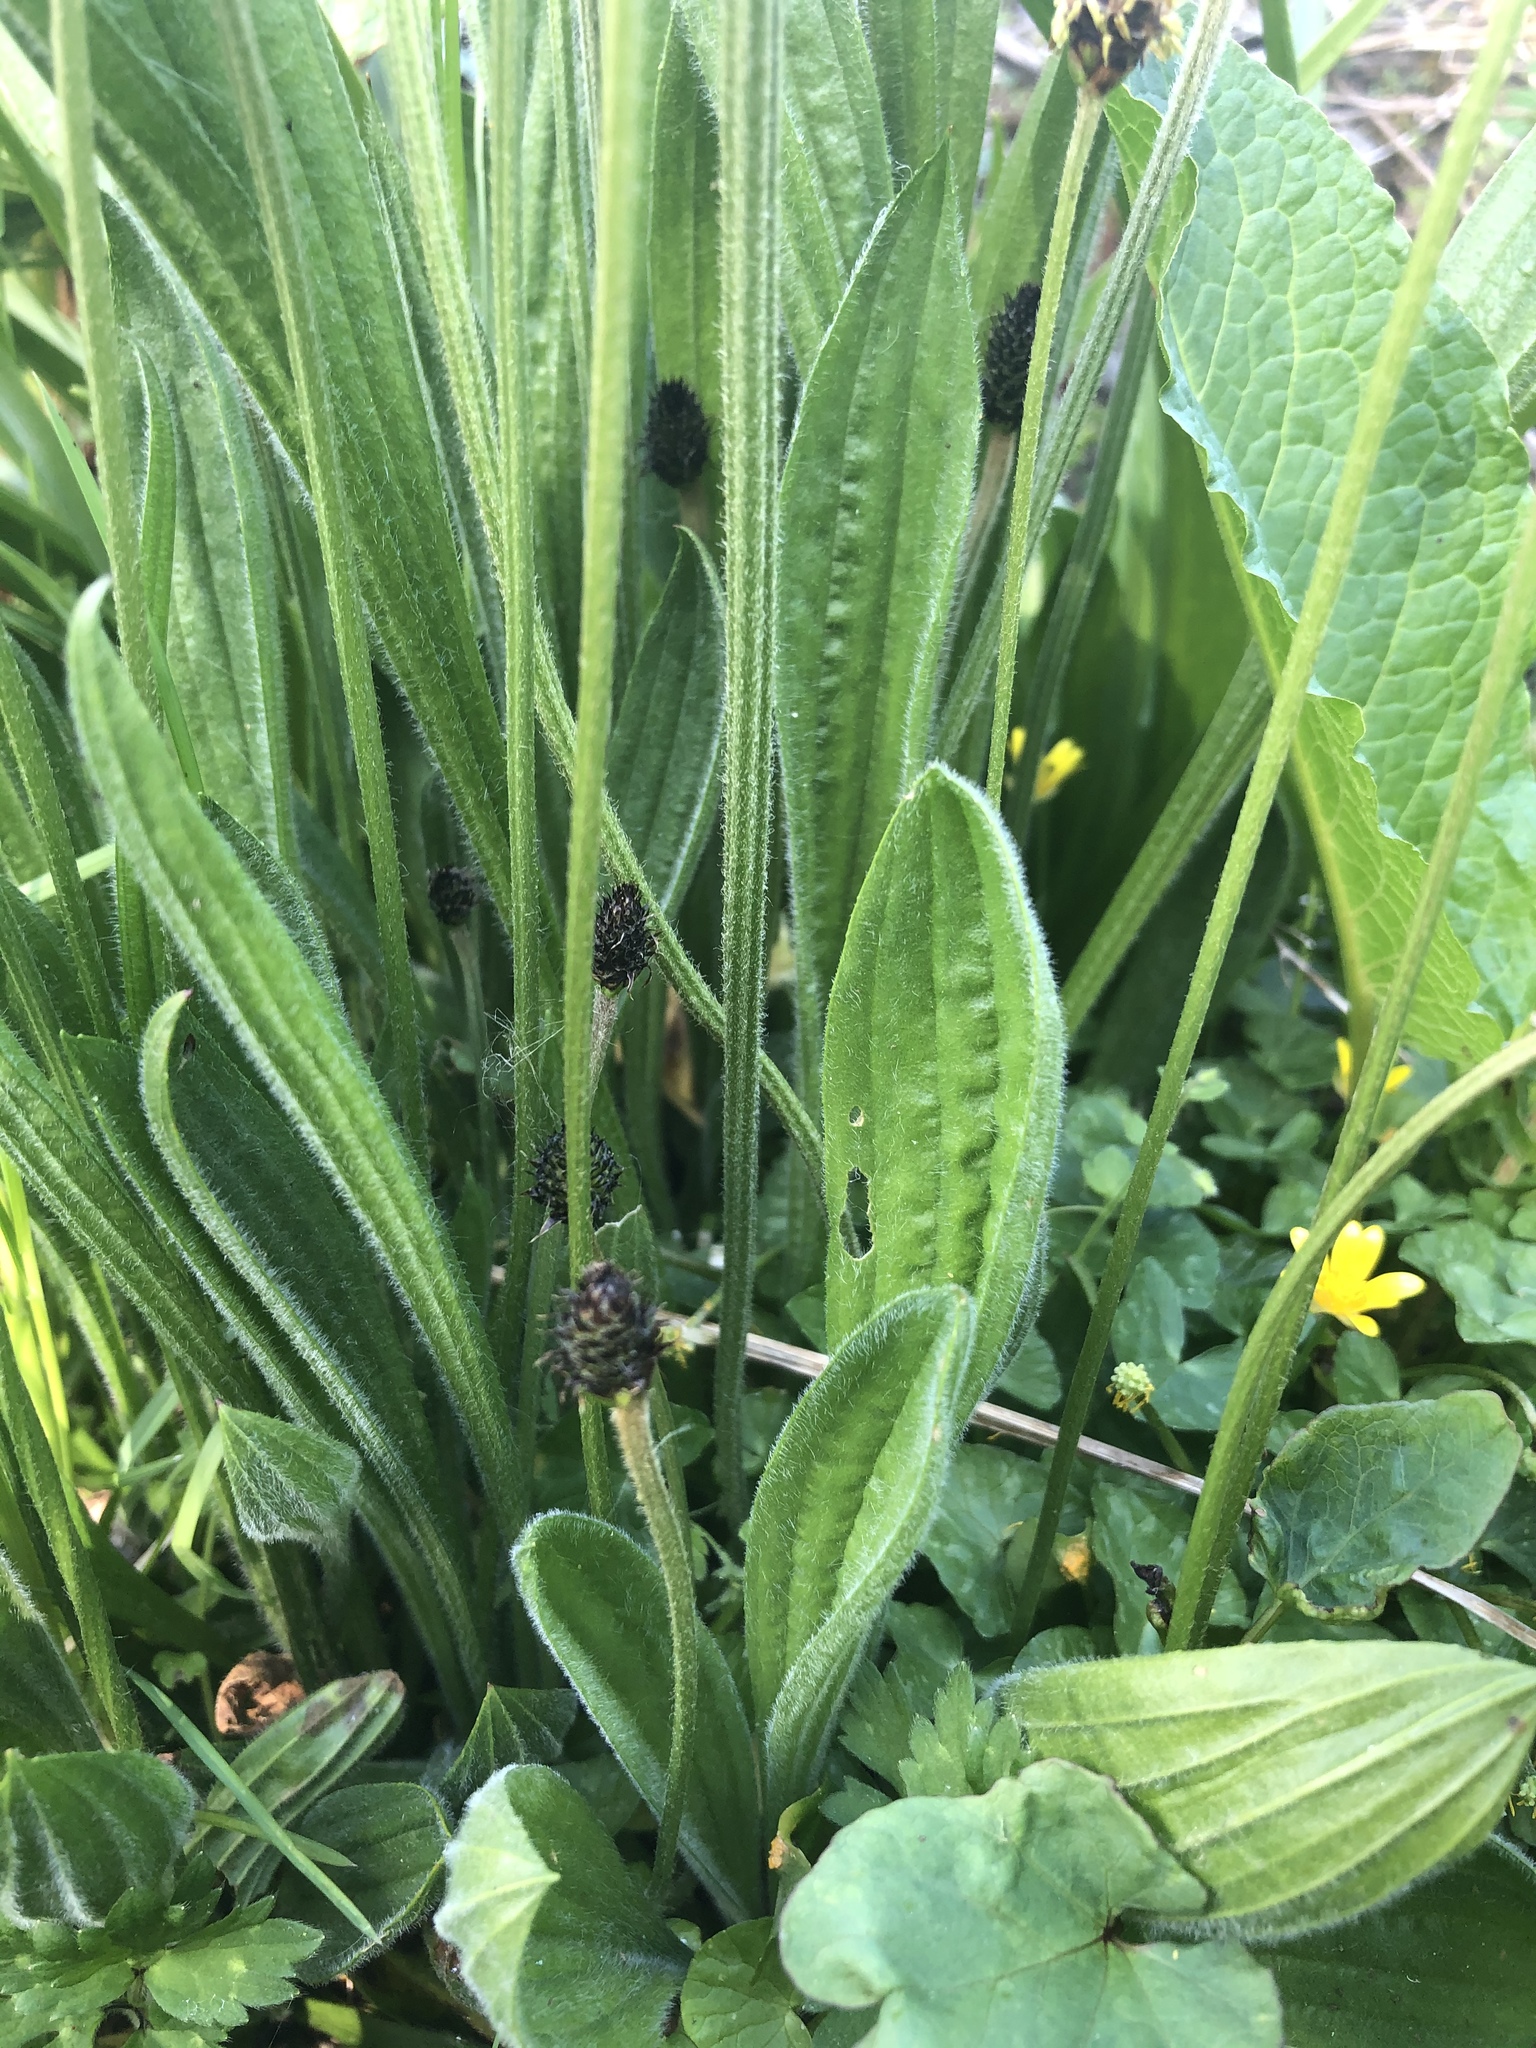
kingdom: Plantae
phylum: Tracheophyta
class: Magnoliopsida
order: Lamiales
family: Plantaginaceae
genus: Plantago
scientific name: Plantago lanceolata
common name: Ribwort plantain
